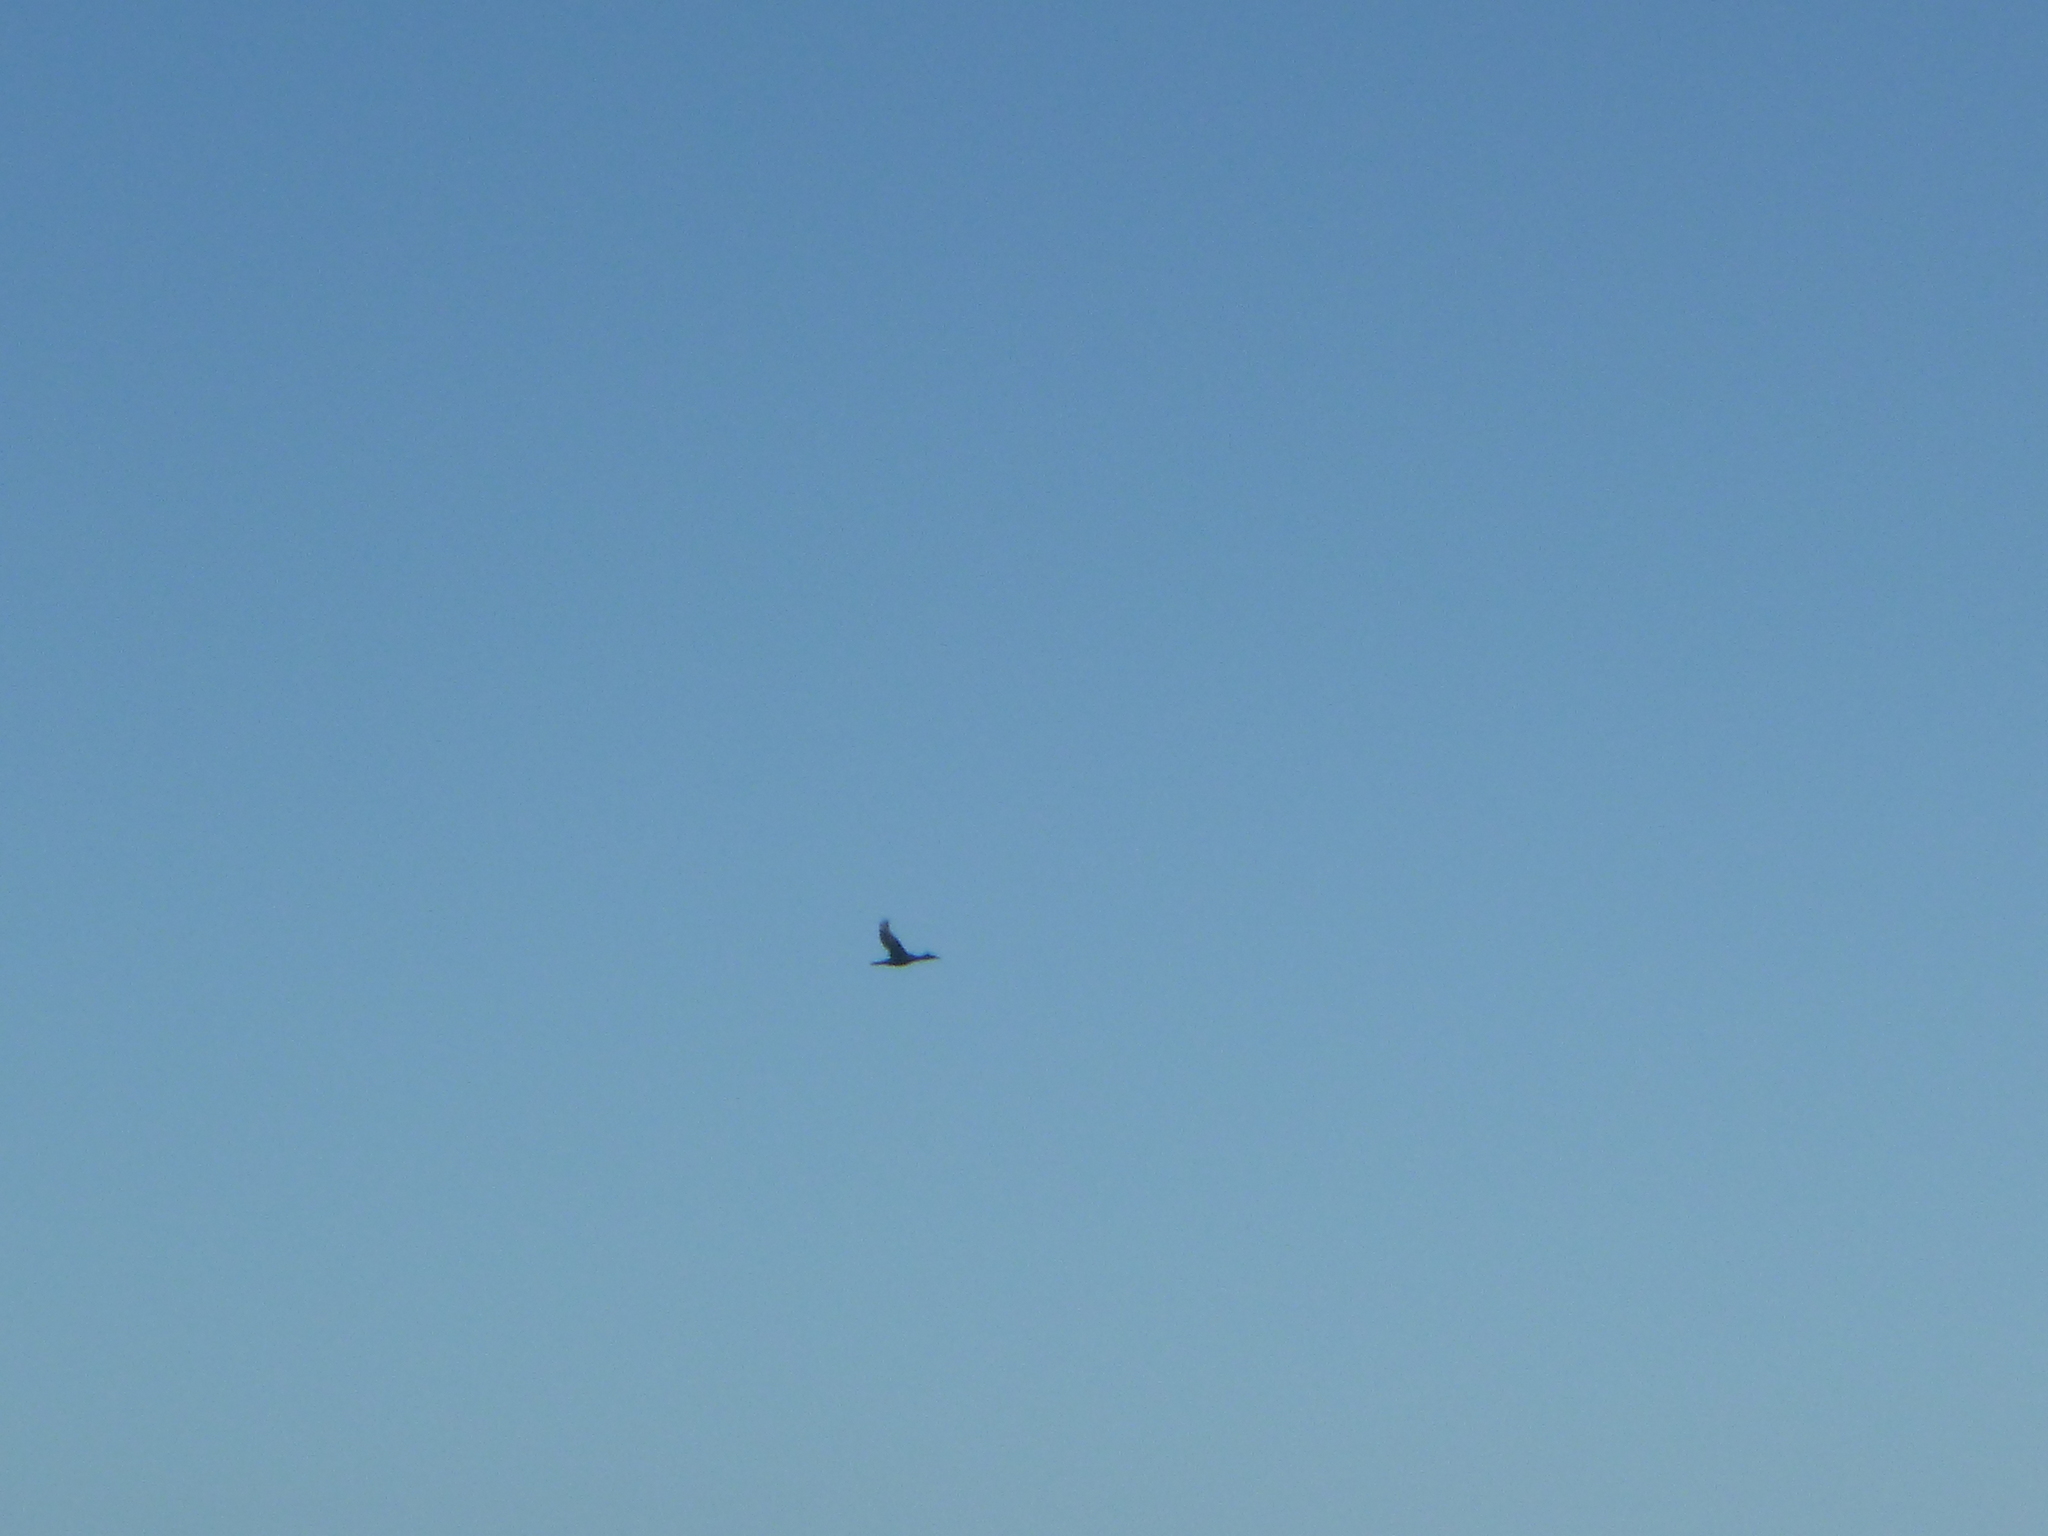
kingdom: Animalia
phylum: Chordata
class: Aves
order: Suliformes
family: Phalacrocoracidae
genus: Phalacrocorax
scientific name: Phalacrocorax auritus
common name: Double-crested cormorant
